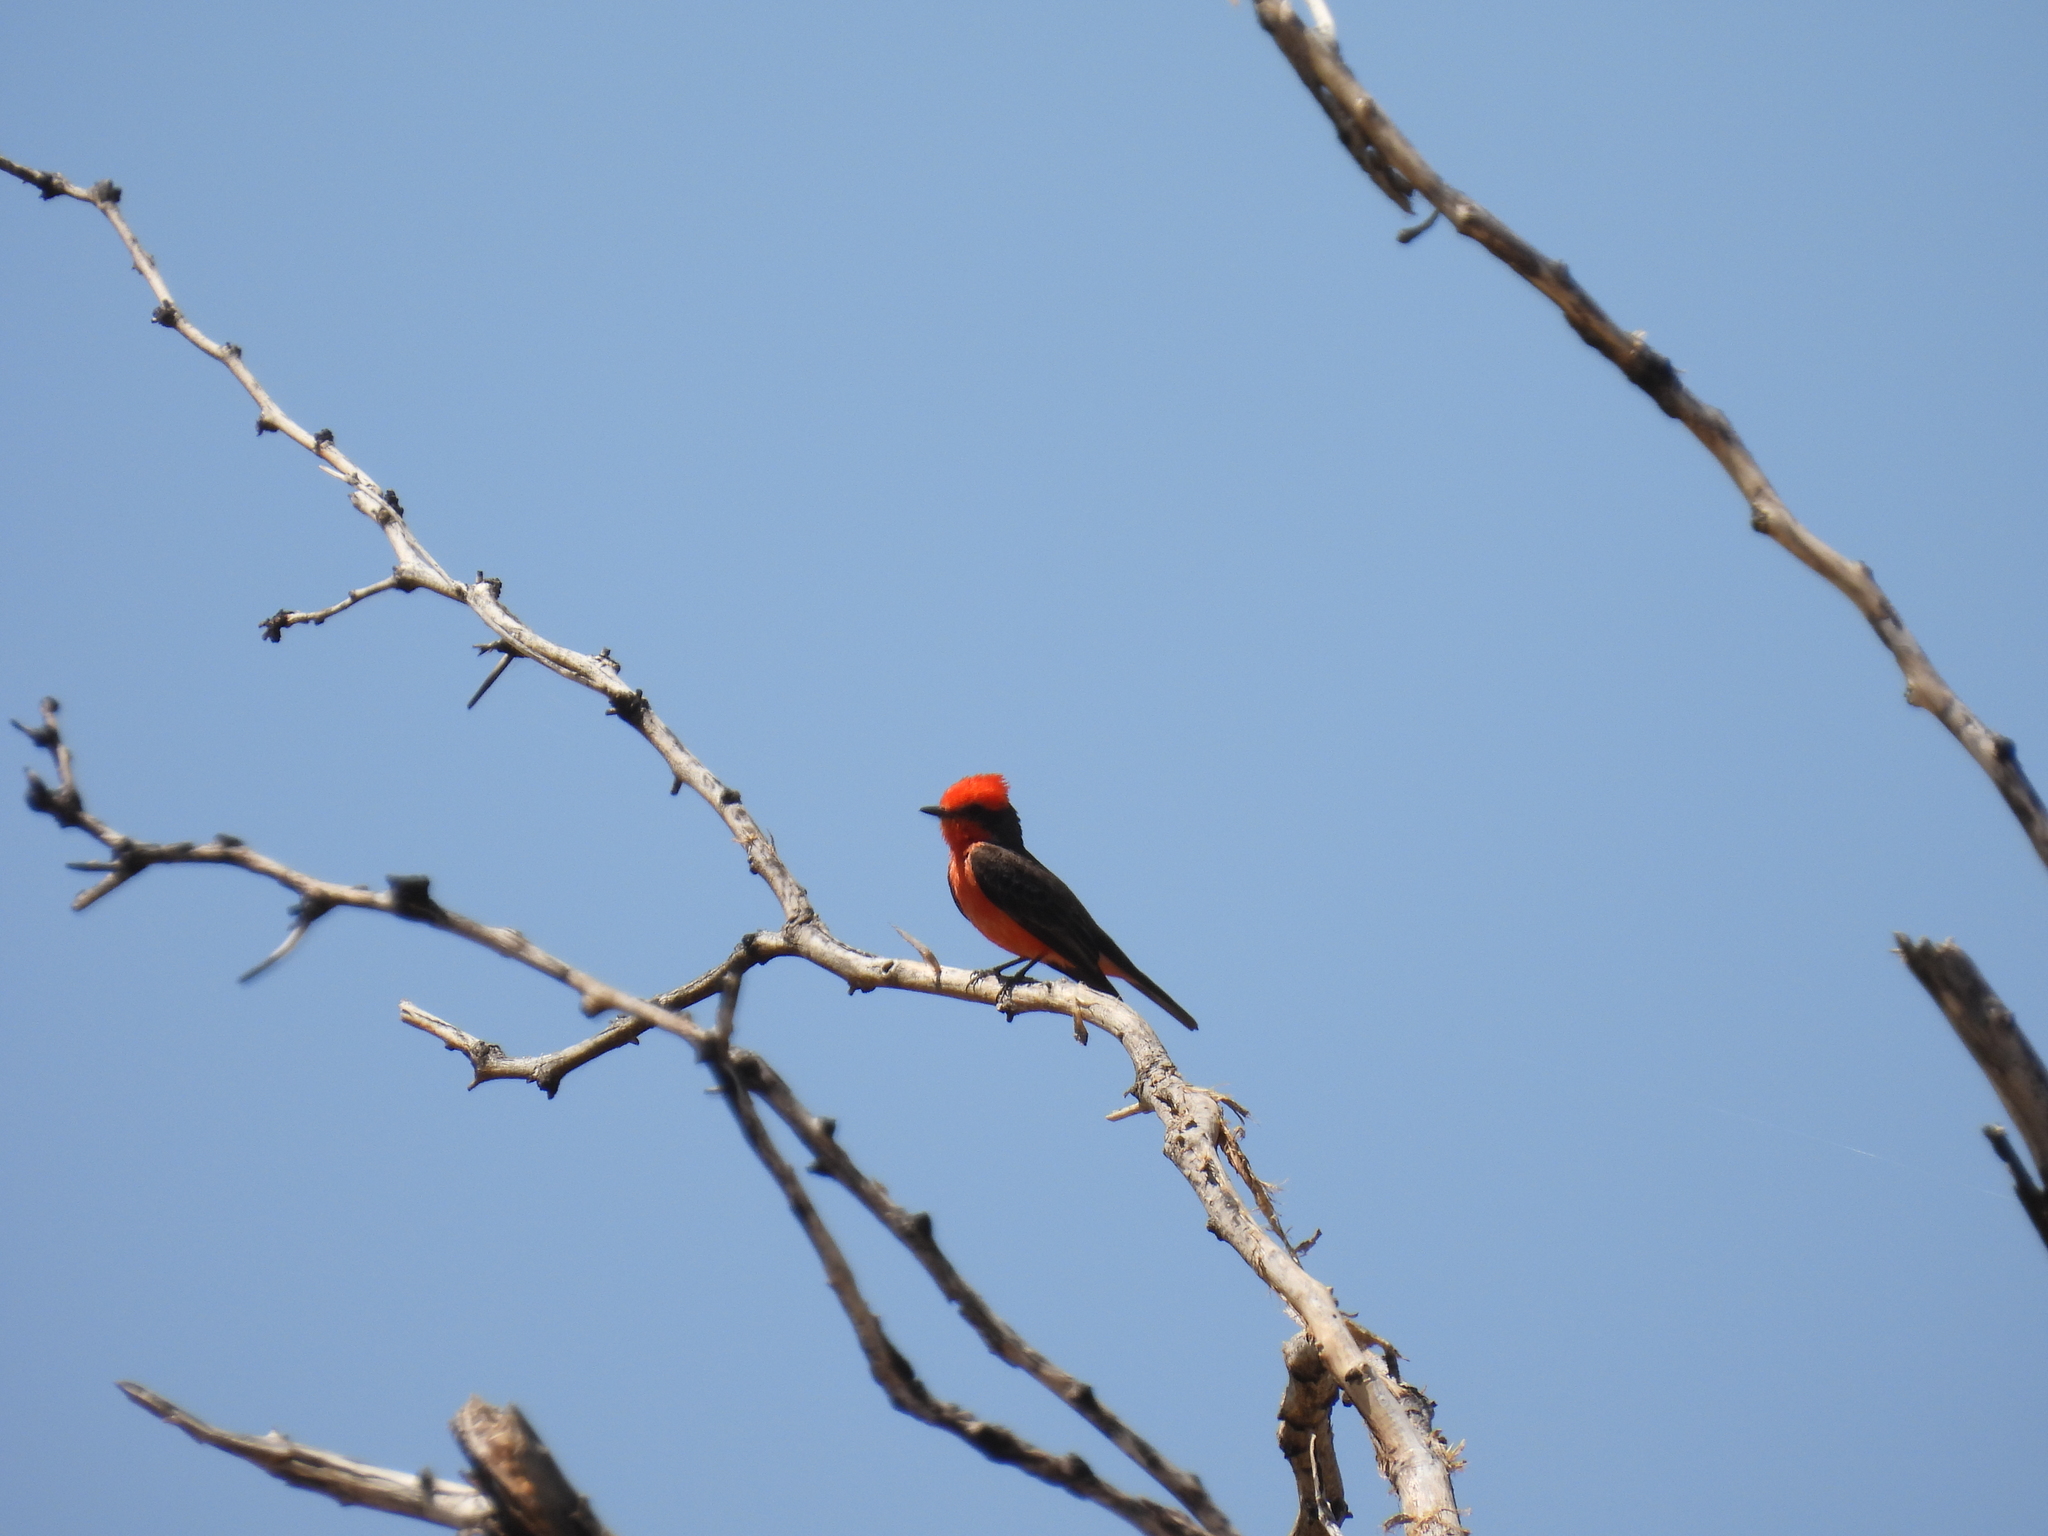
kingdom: Animalia
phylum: Chordata
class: Aves
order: Passeriformes
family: Tyrannidae
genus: Pyrocephalus
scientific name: Pyrocephalus rubinus
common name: Vermilion flycatcher
